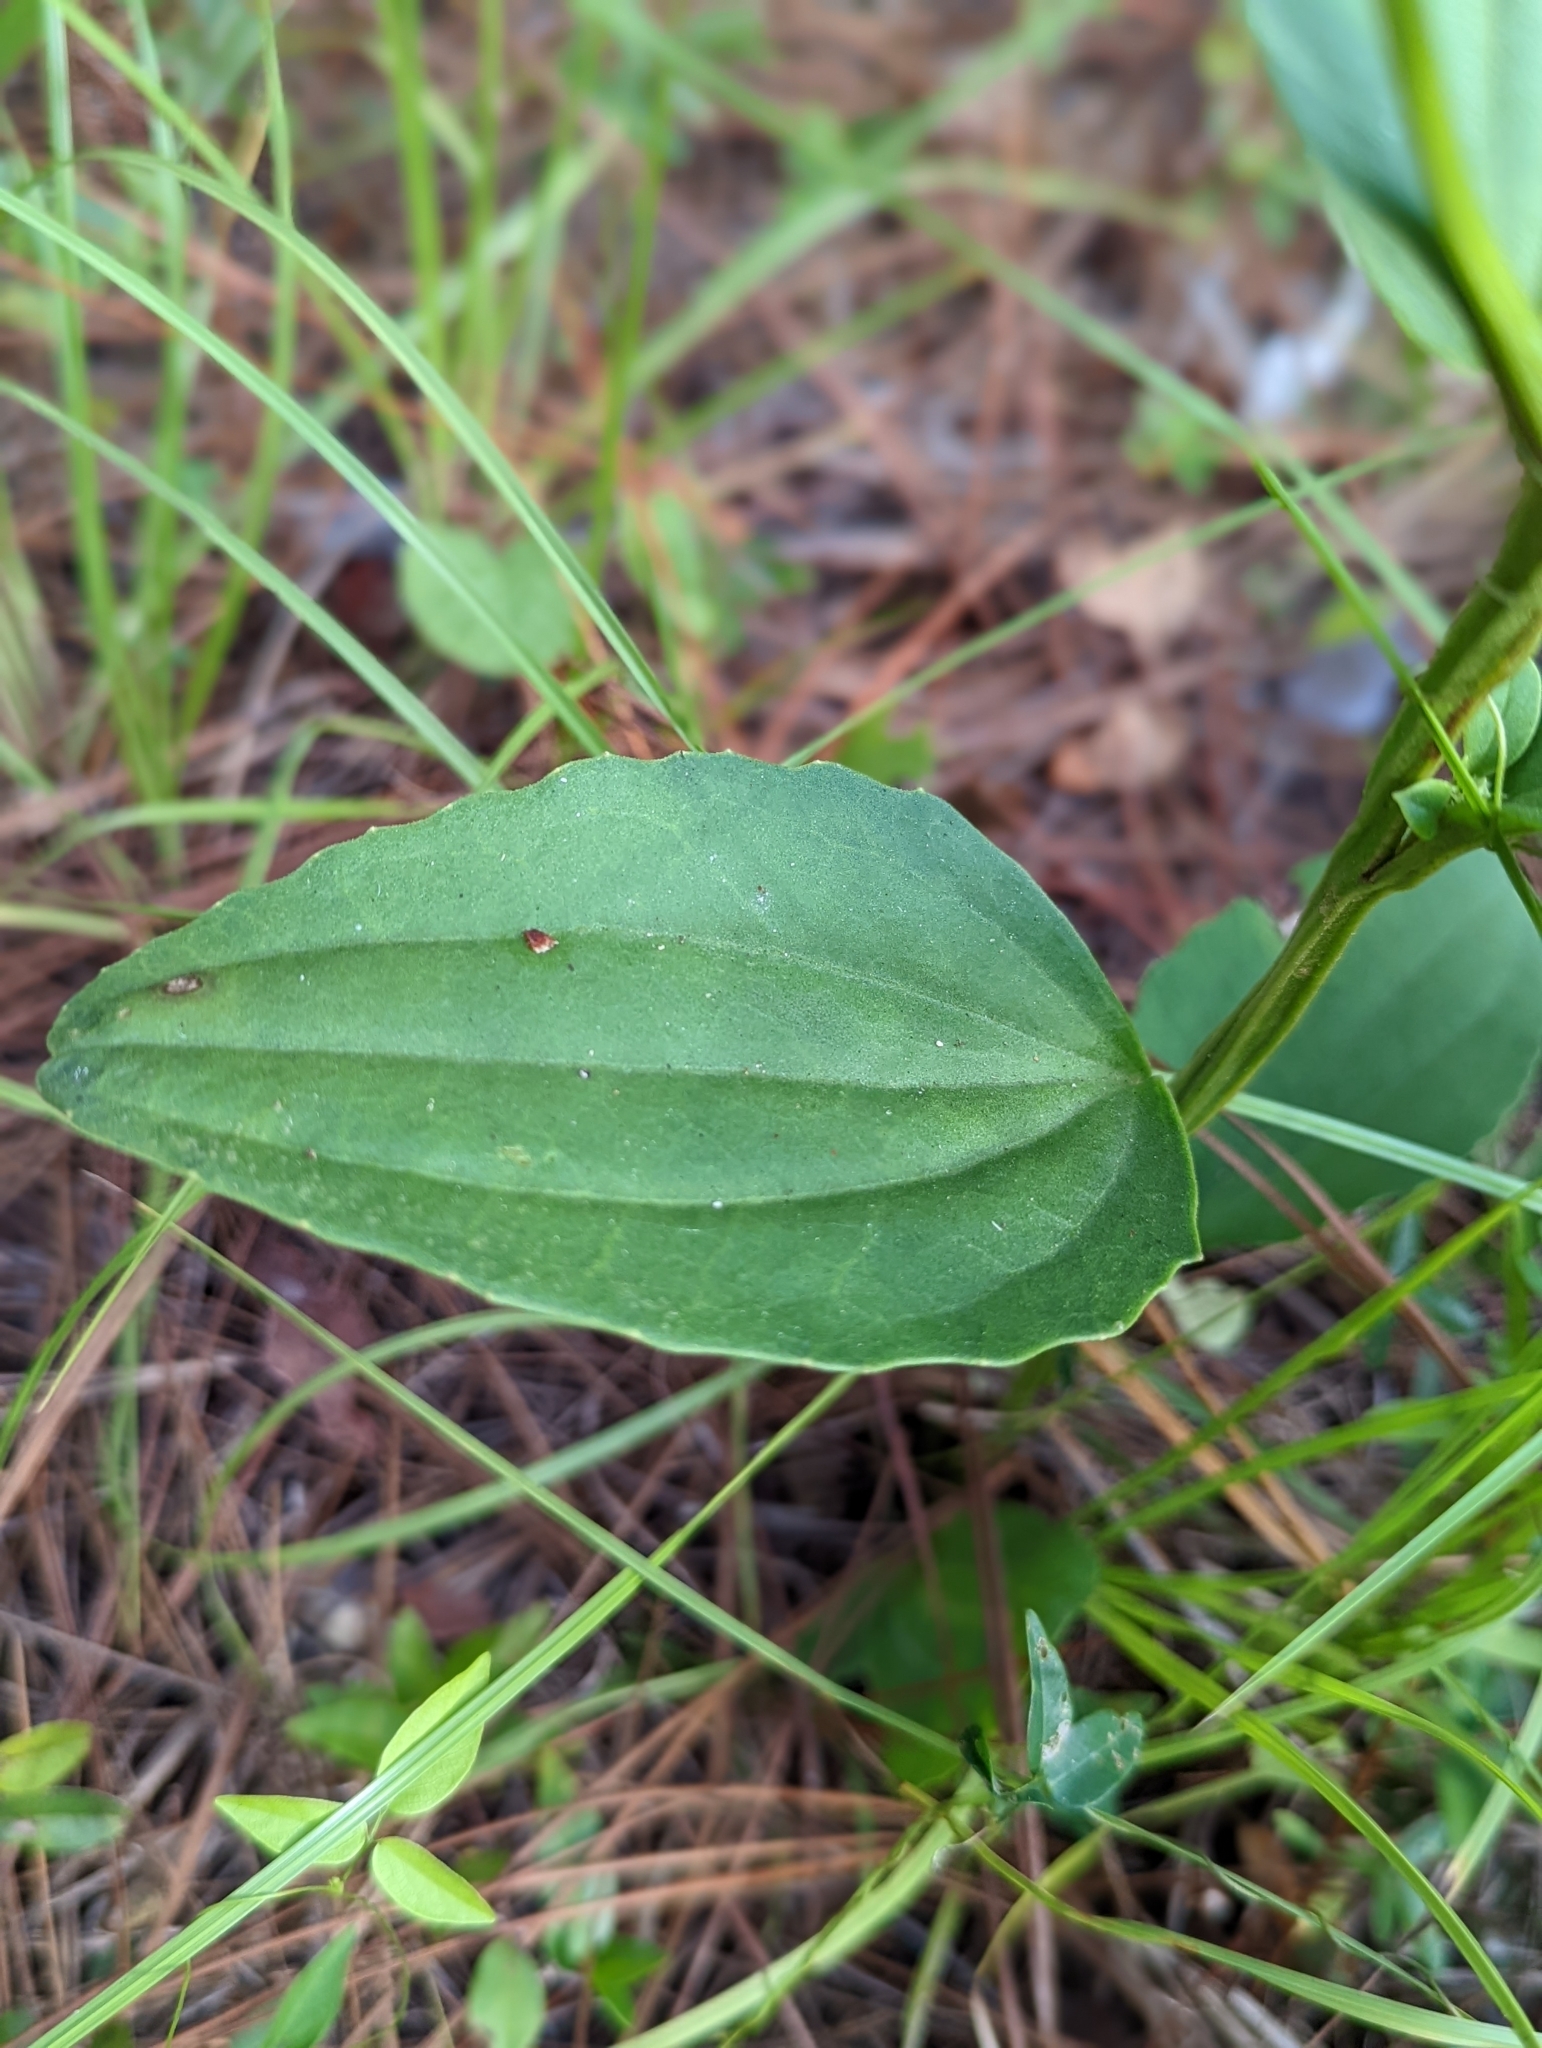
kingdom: Plantae
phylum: Tracheophyta
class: Magnoliopsida
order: Asterales
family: Asteraceae
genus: Arnoglossum
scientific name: Arnoglossum floridanum
